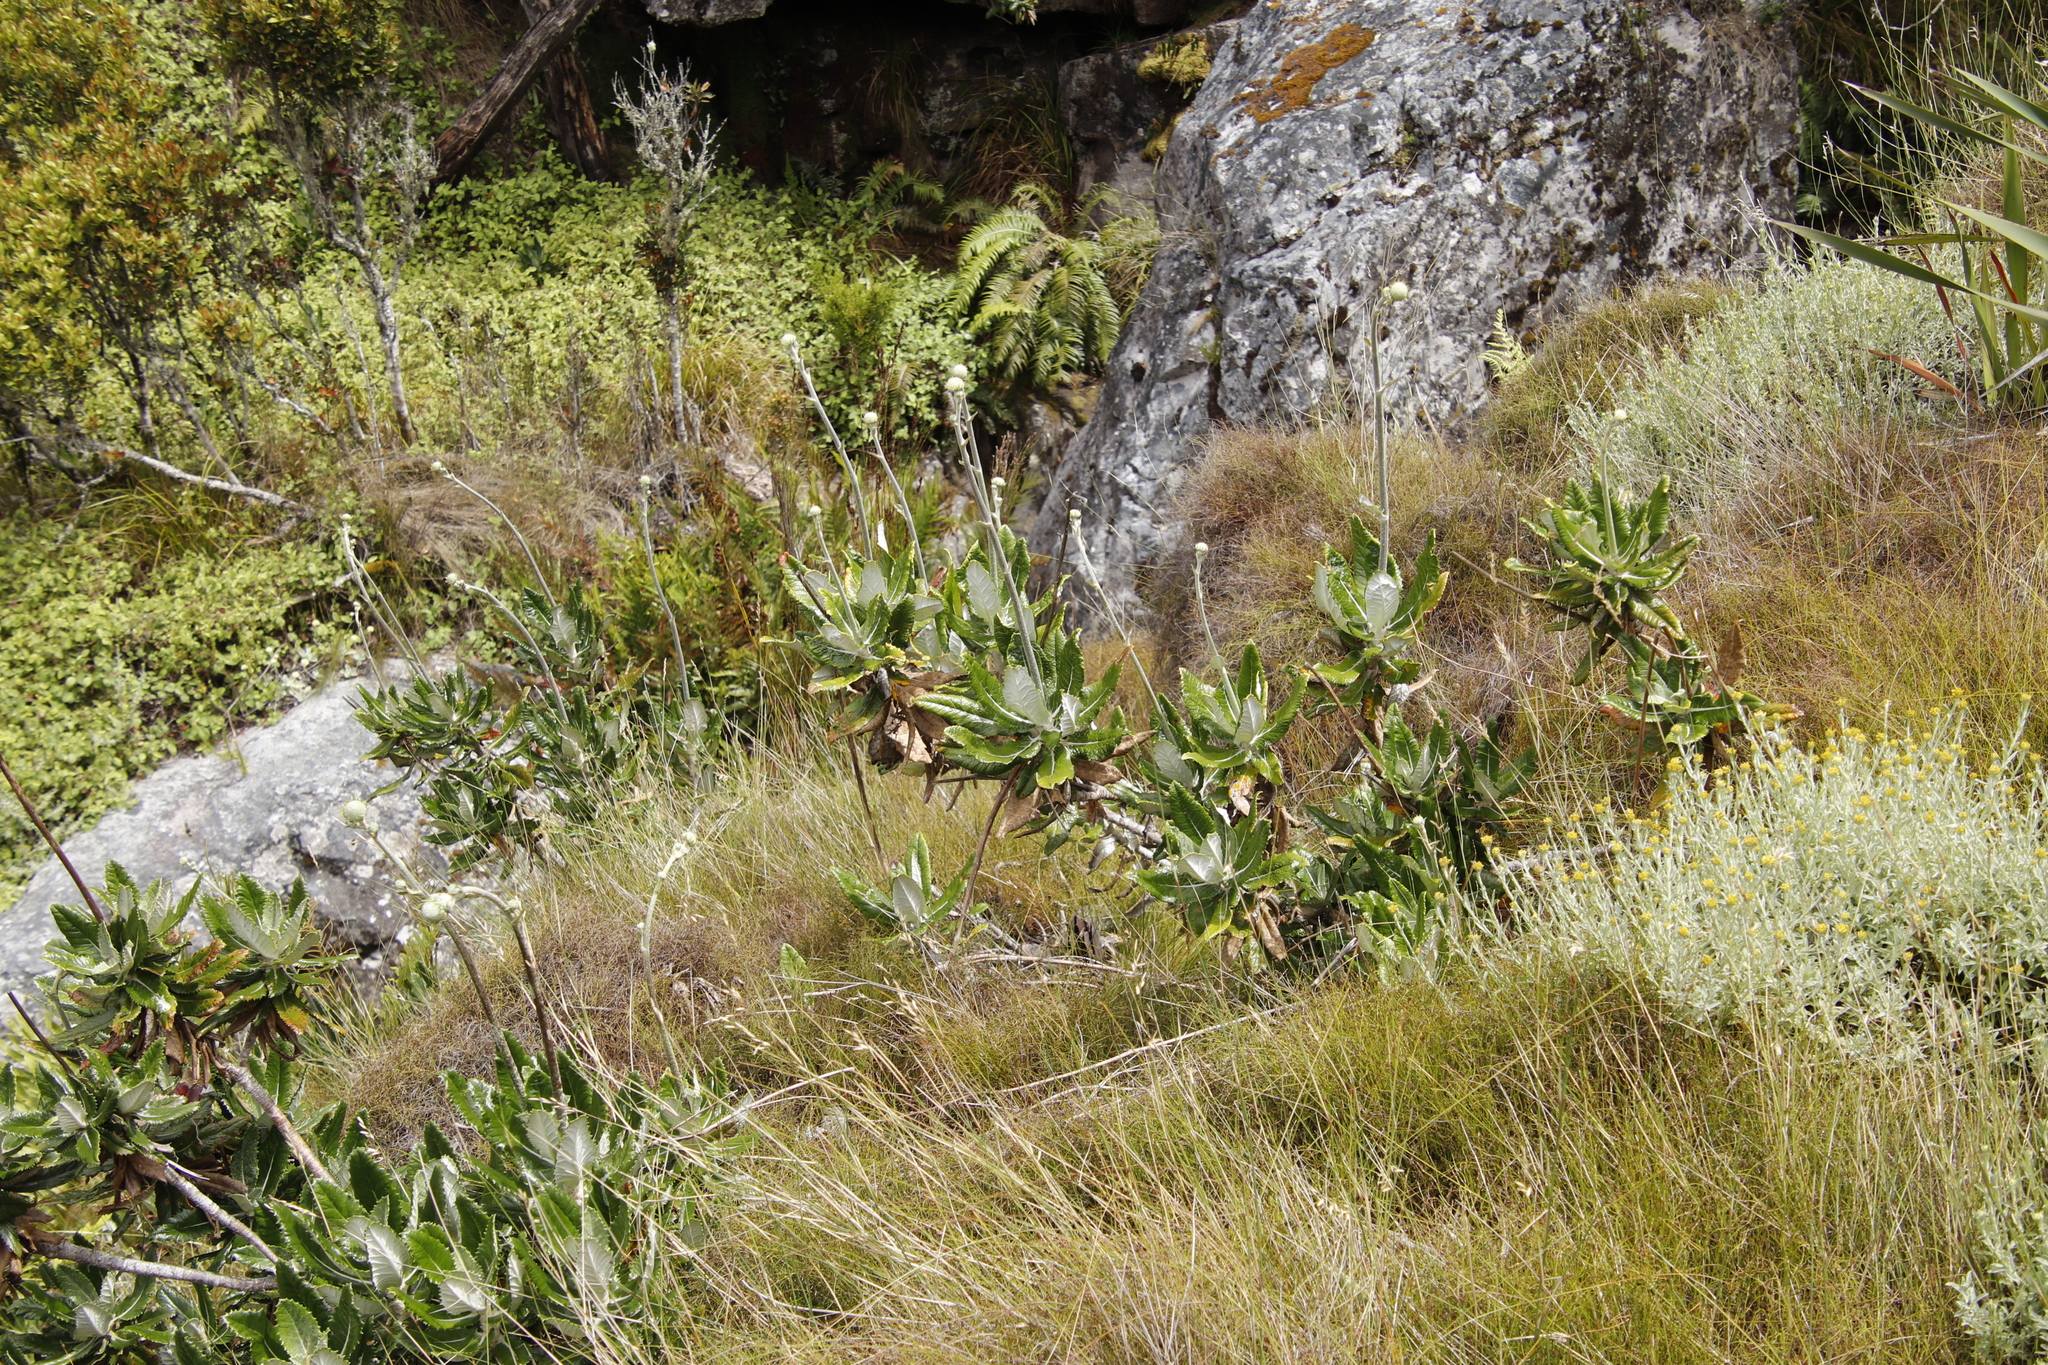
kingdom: Plantae
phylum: Tracheophyta
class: Magnoliopsida
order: Apiales
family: Apiaceae
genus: Hermas
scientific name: Hermas villosa
